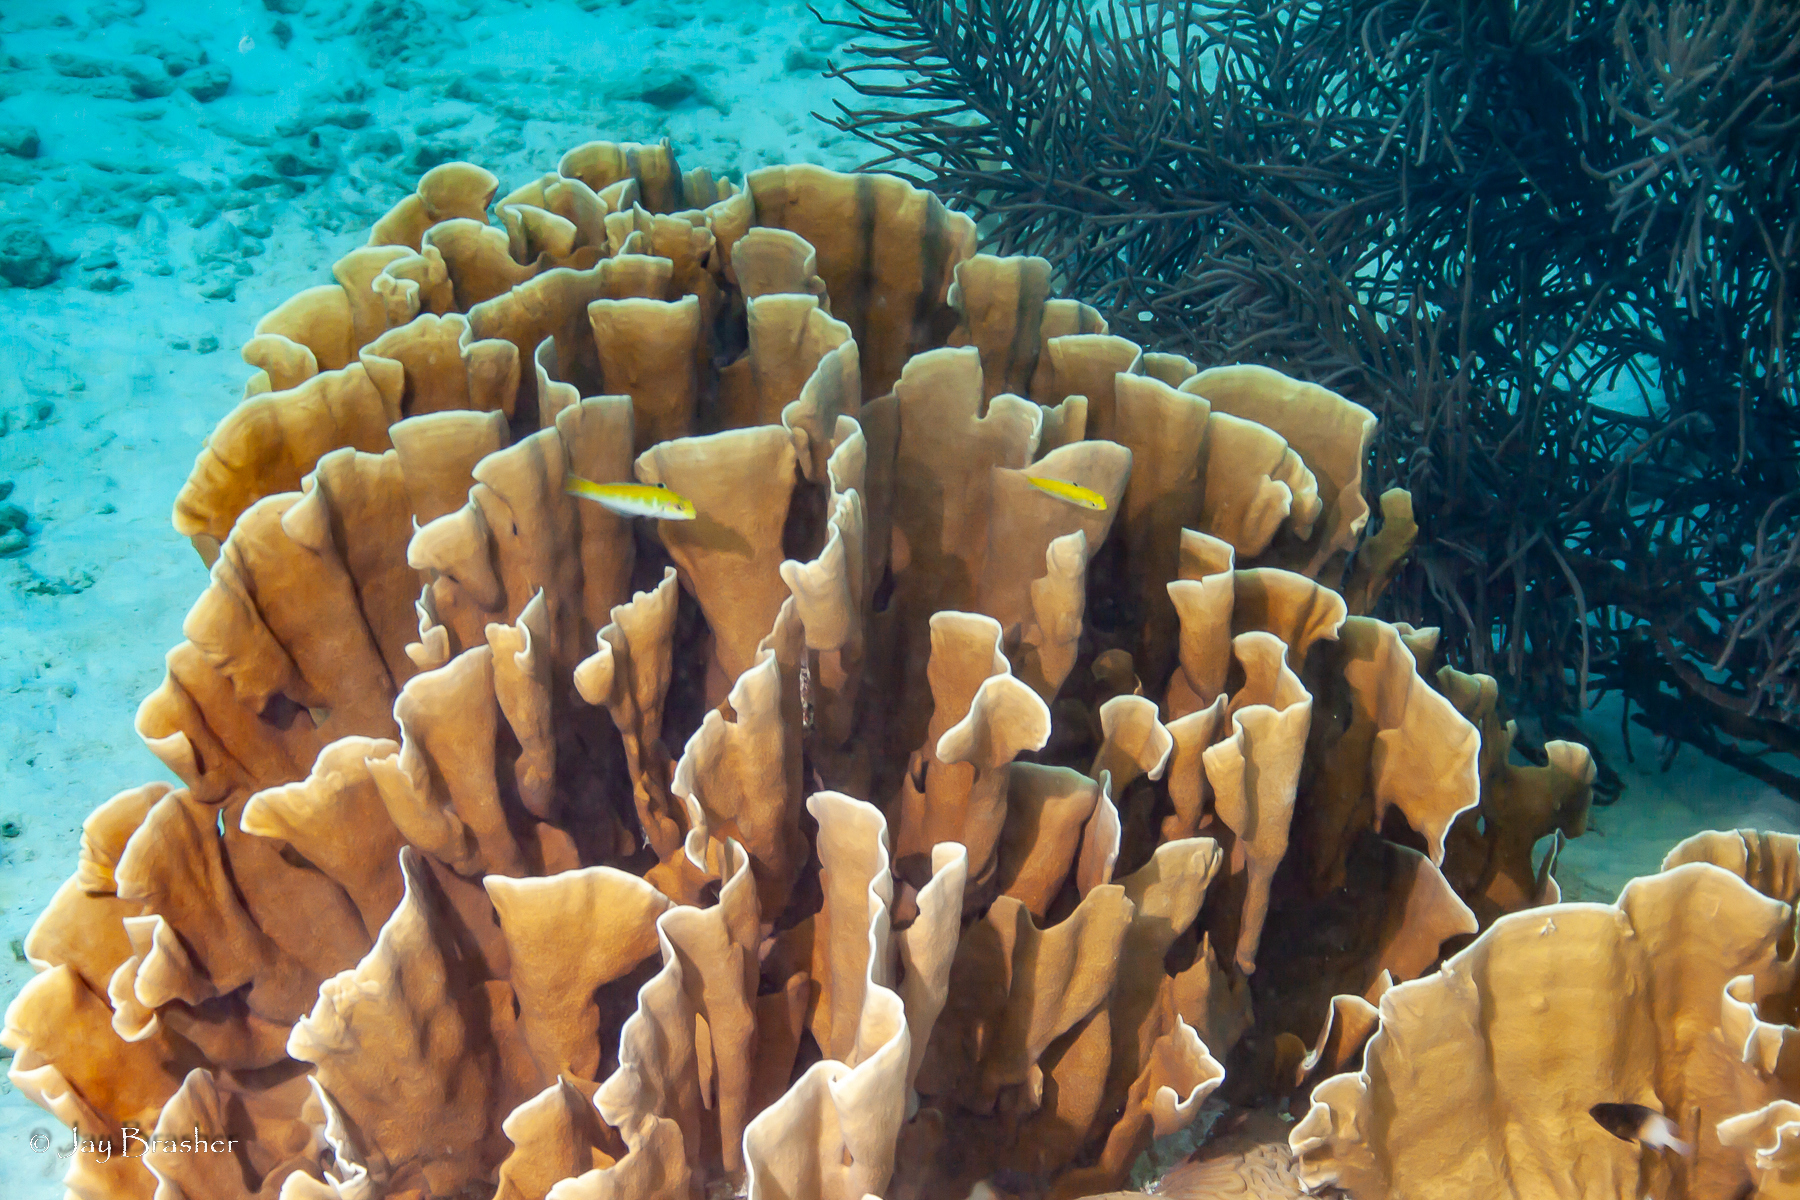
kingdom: Animalia
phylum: Cnidaria
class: Hydrozoa
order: Anthoathecata
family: Milleporidae
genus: Millepora
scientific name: Millepora complanata
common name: Bladed fire coral
